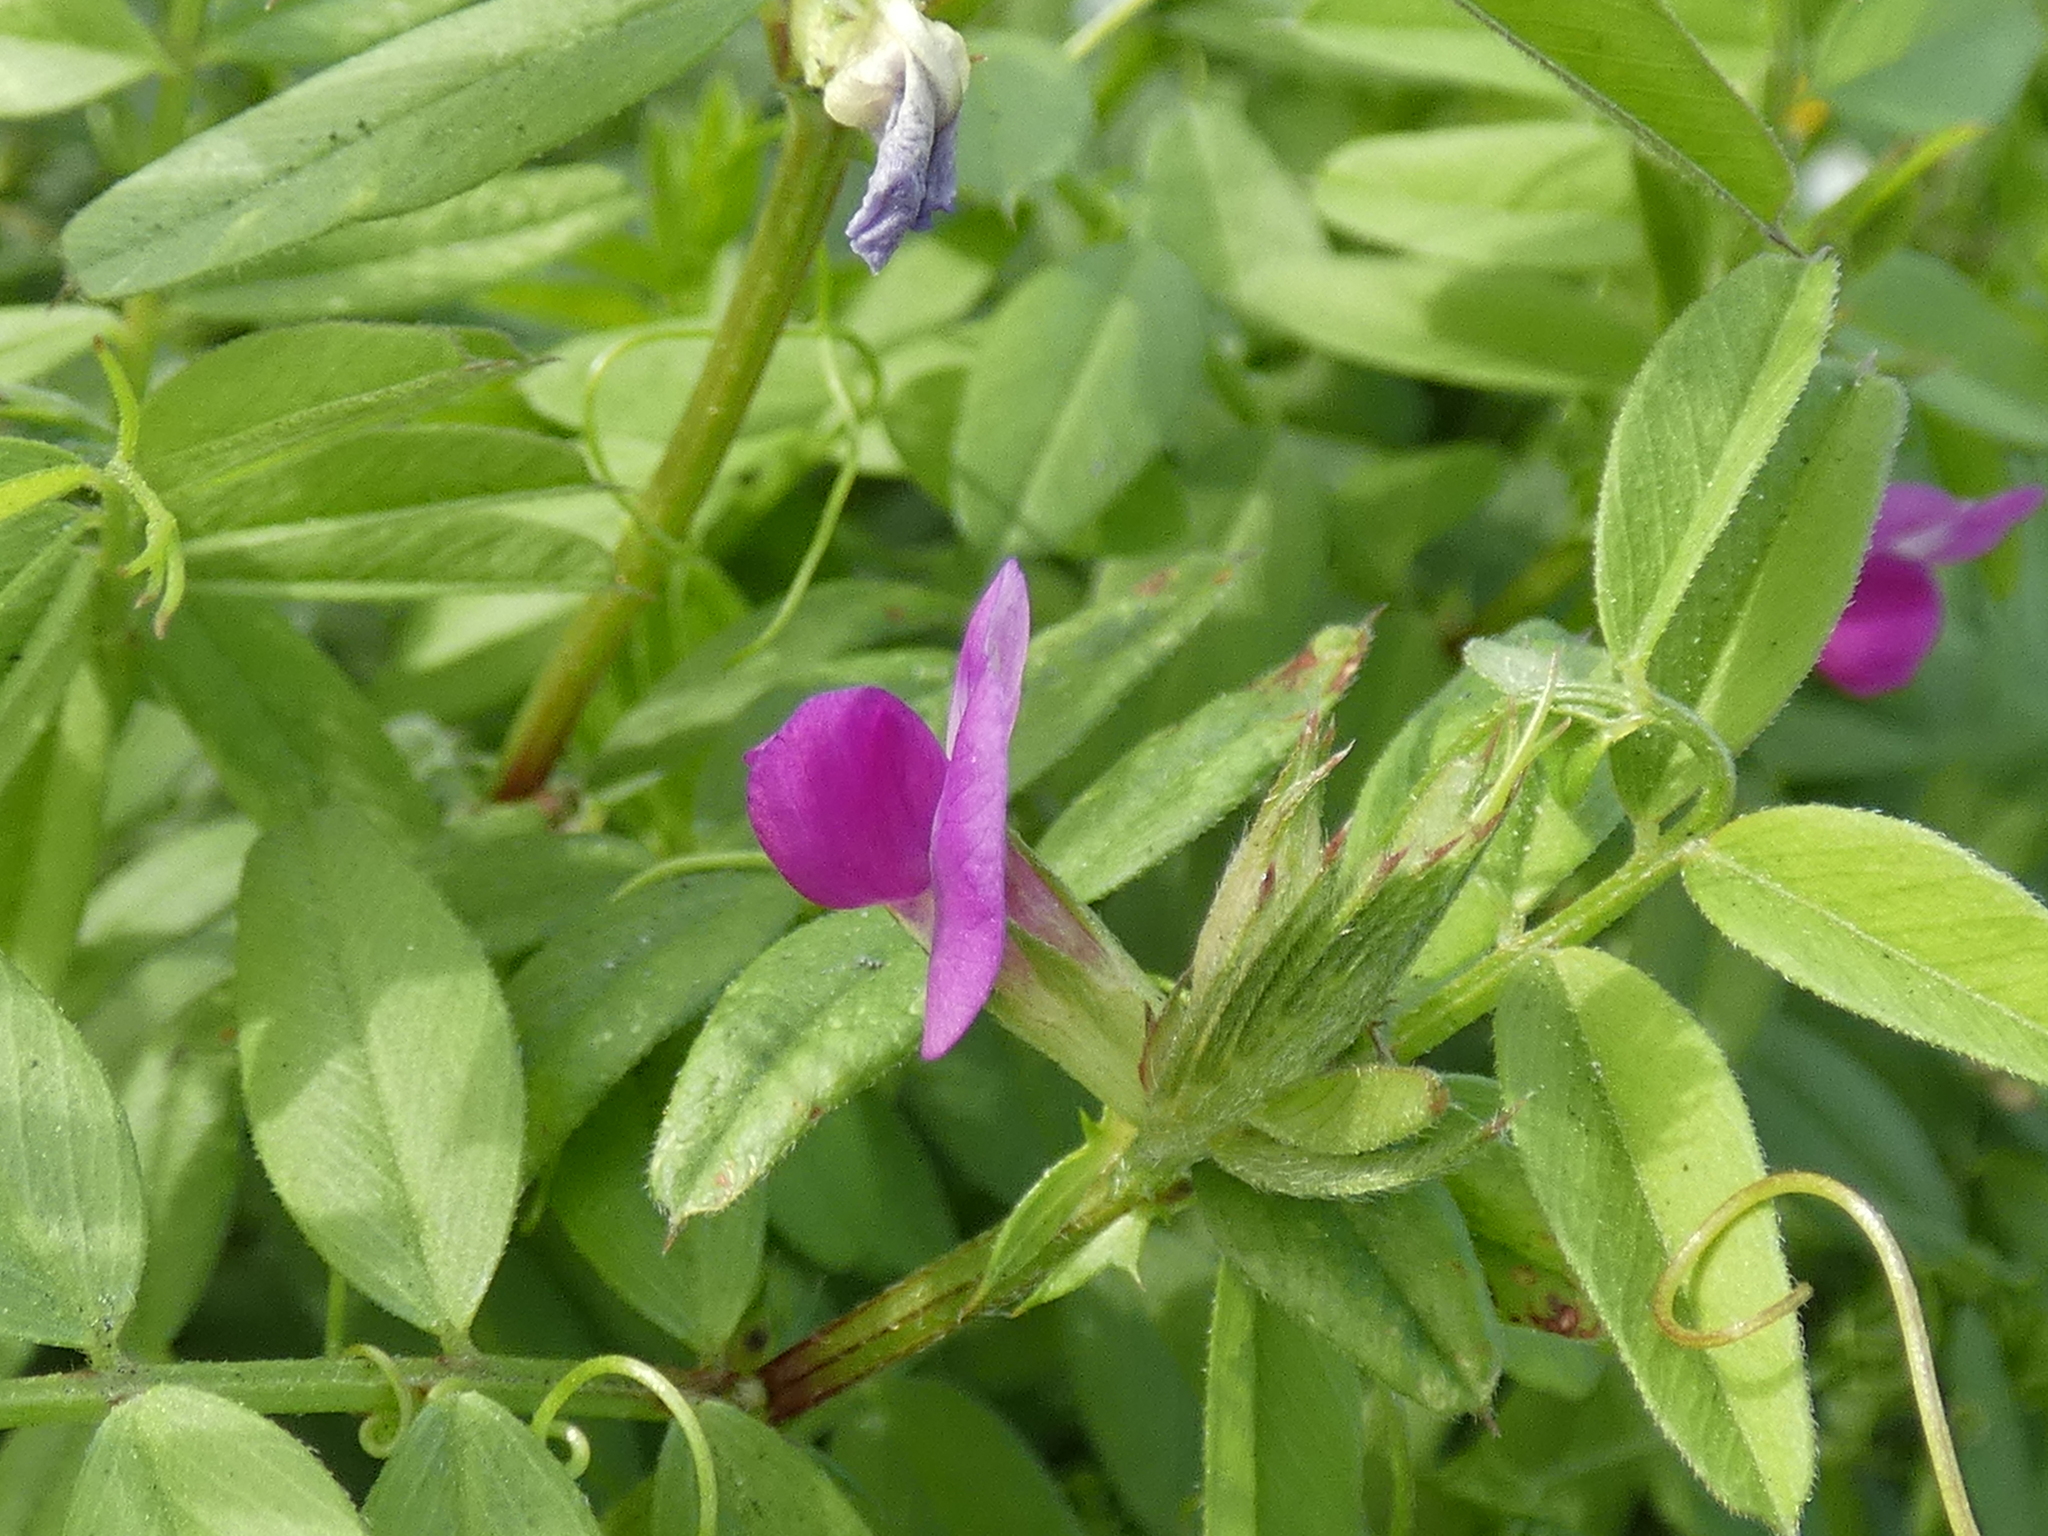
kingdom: Plantae
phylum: Tracheophyta
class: Magnoliopsida
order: Fabales
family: Fabaceae
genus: Vicia
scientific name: Vicia sativa
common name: Garden vetch
